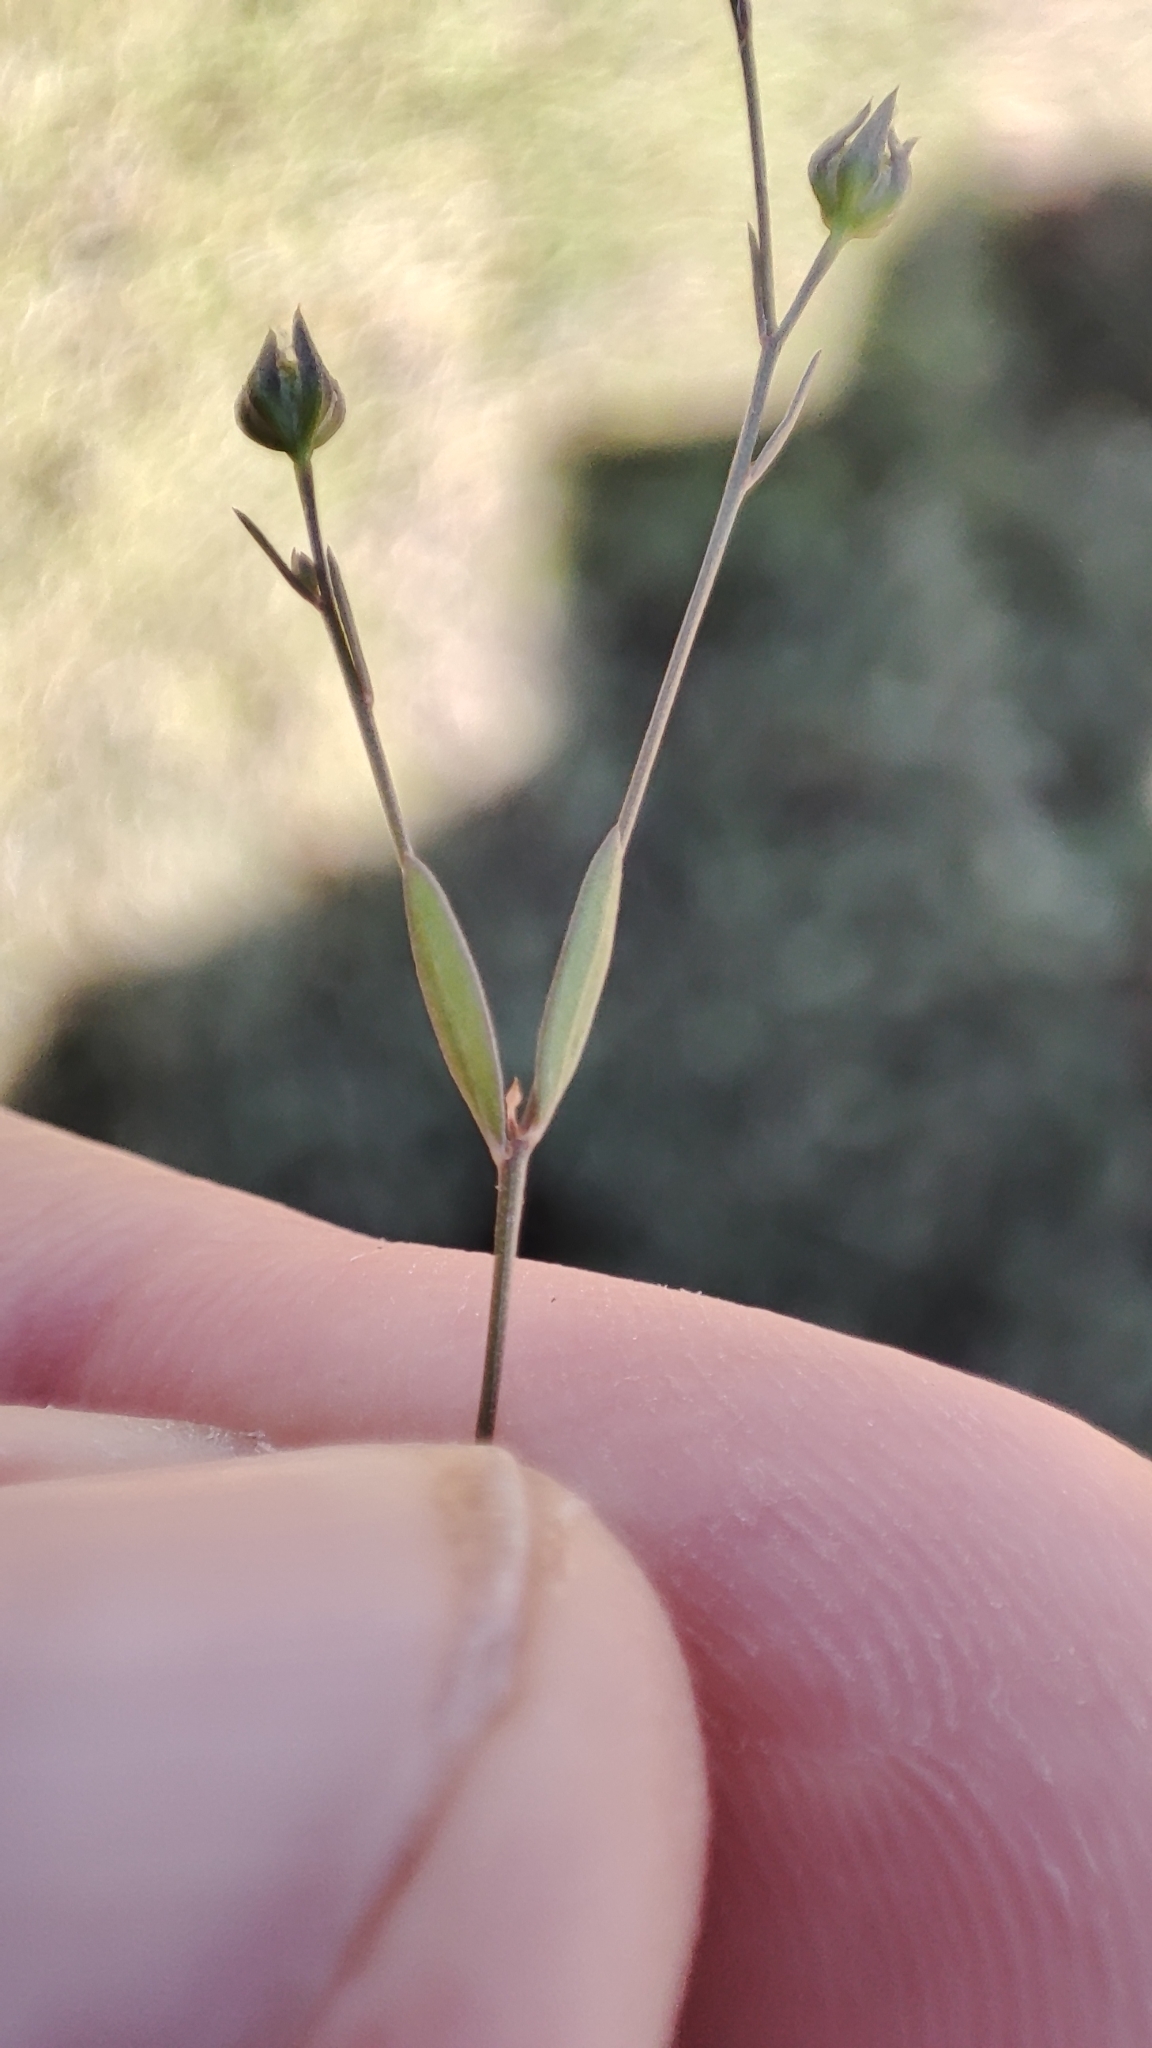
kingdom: Plantae
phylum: Tracheophyta
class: Magnoliopsida
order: Malpighiales
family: Linaceae
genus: Linum
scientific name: Linum trigynum
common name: French flax
